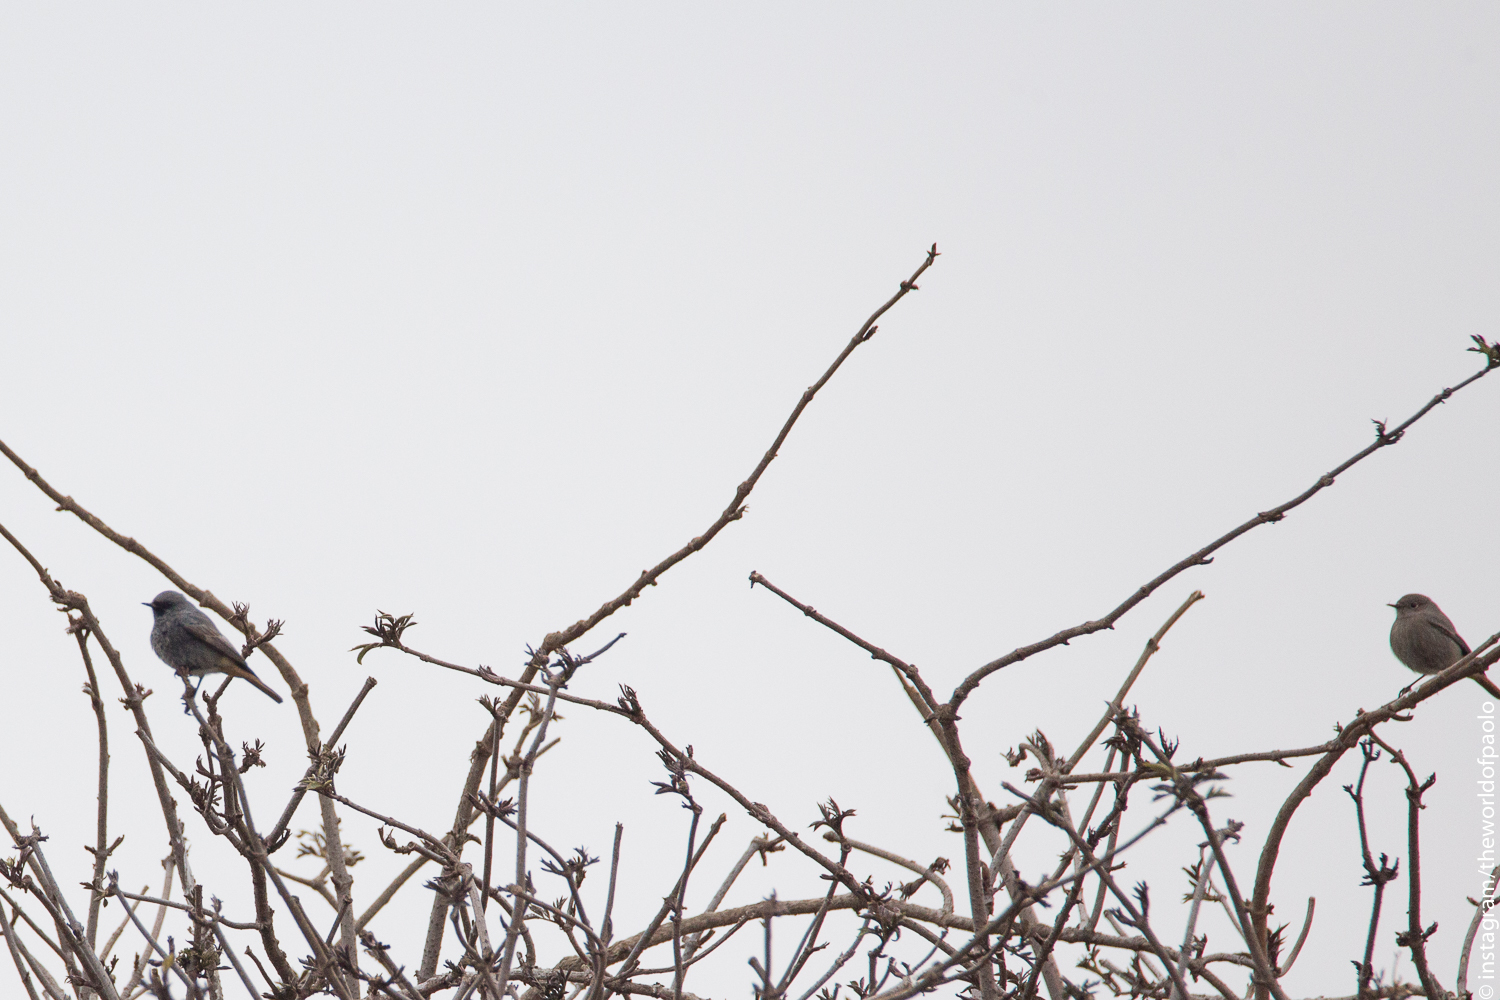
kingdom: Animalia
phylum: Chordata
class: Aves
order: Passeriformes
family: Muscicapidae
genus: Phoenicurus
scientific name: Phoenicurus ochruros
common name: Black redstart
